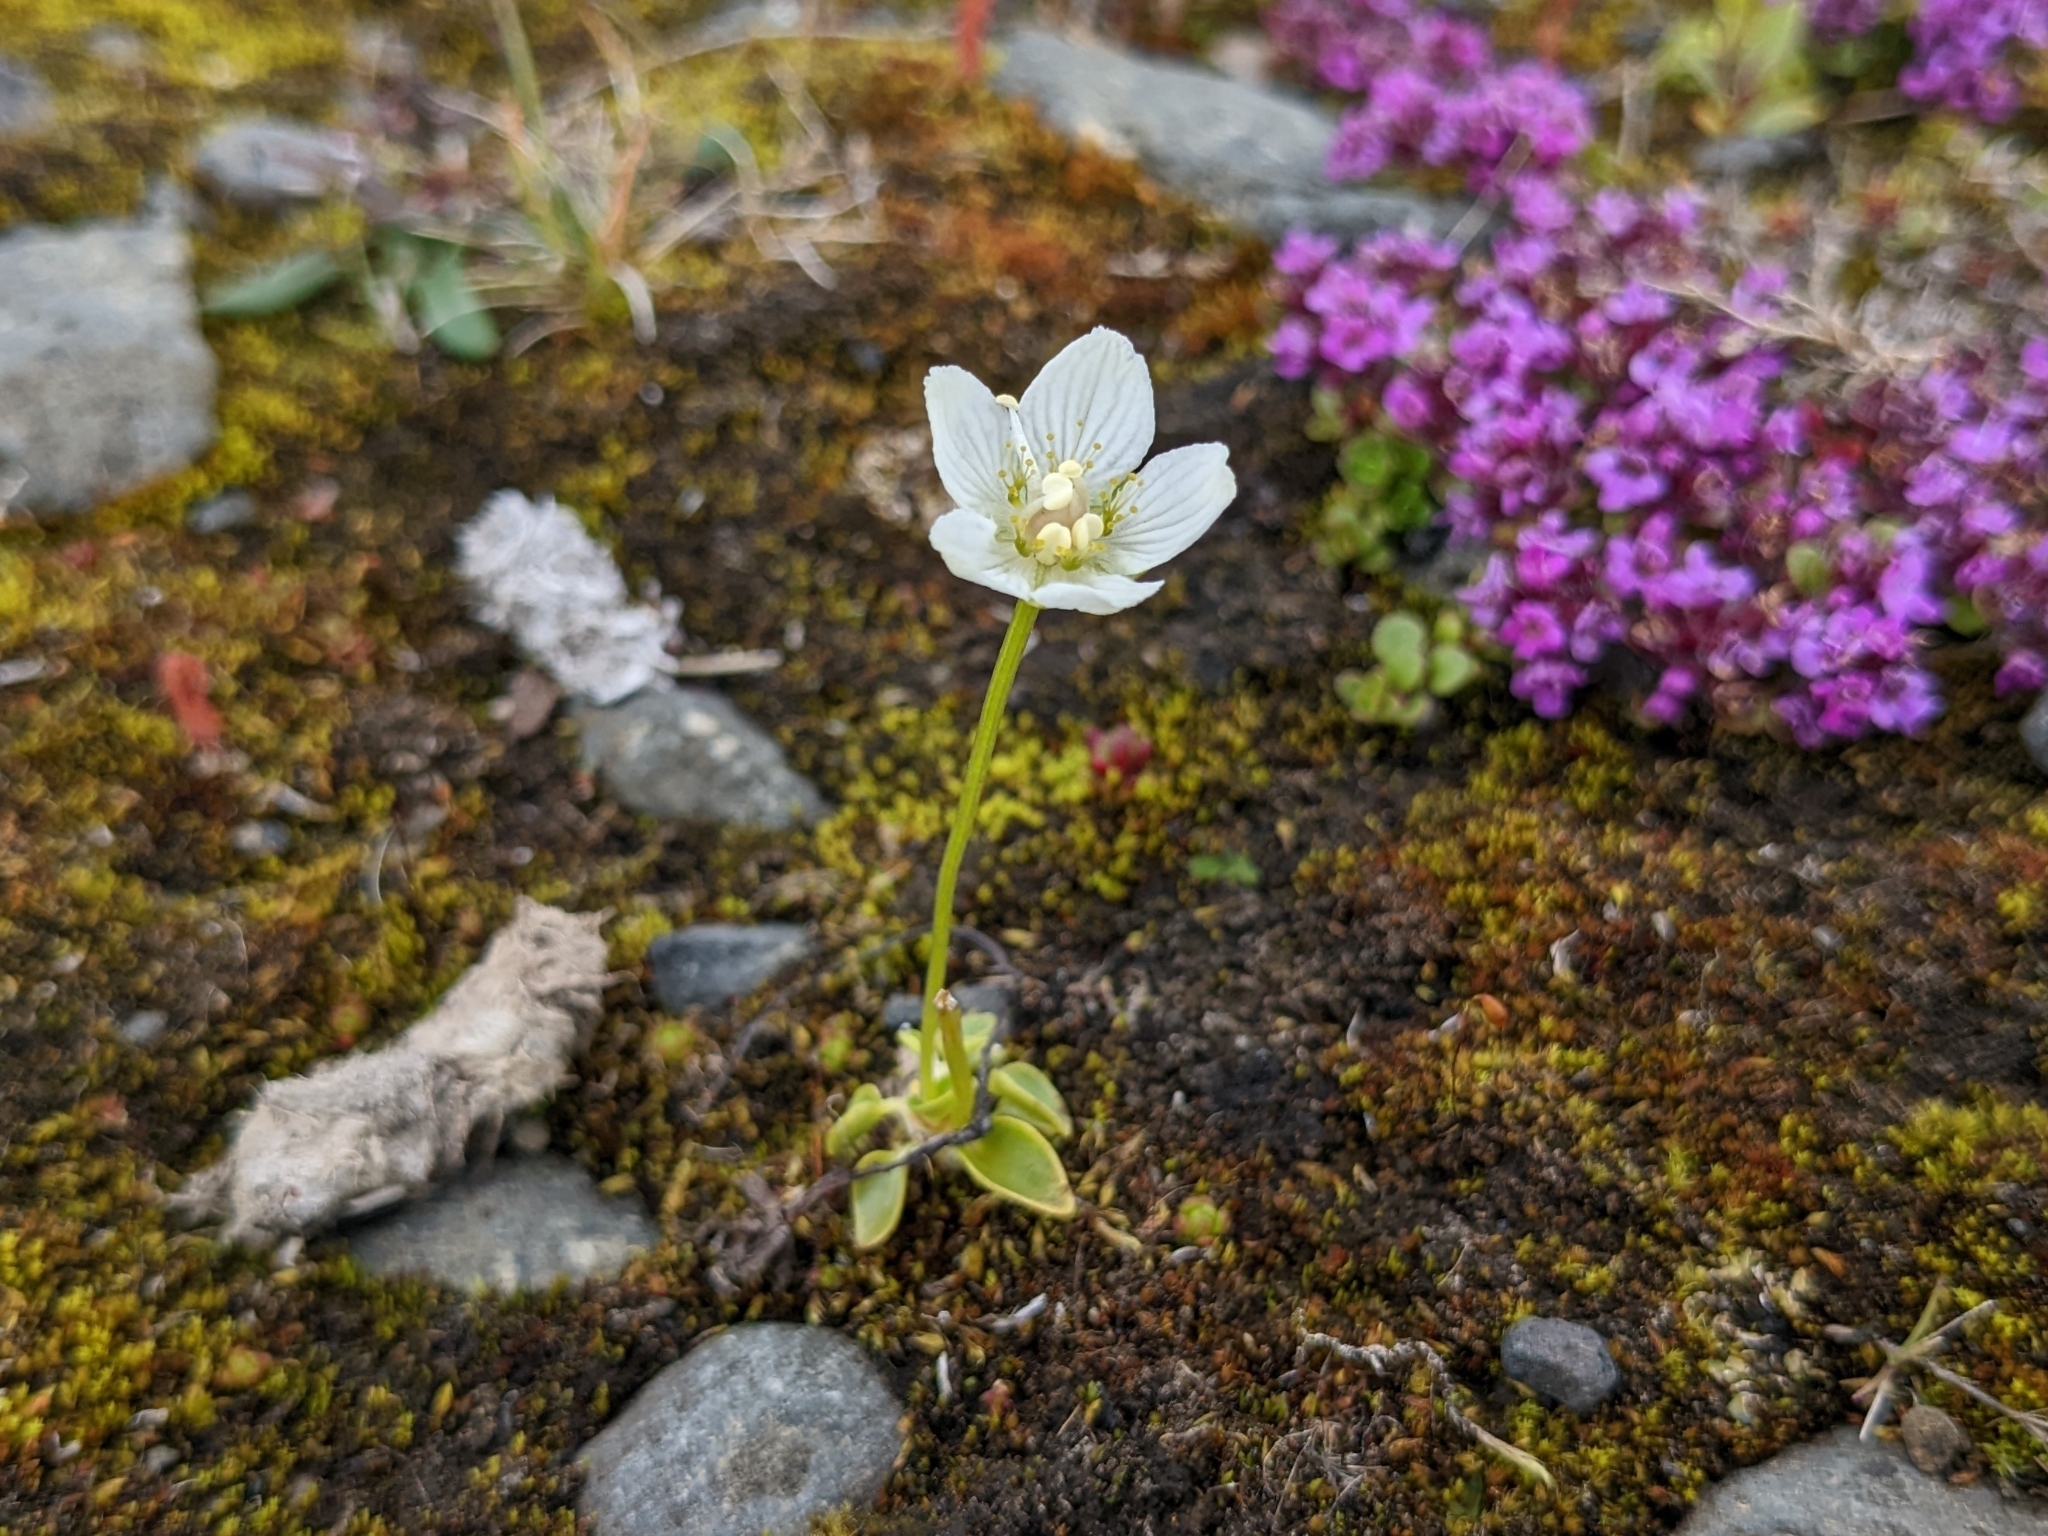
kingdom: Plantae
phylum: Tracheophyta
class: Magnoliopsida
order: Celastrales
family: Parnassiaceae
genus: Parnassia
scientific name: Parnassia palustris
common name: Grass-of-parnassus
